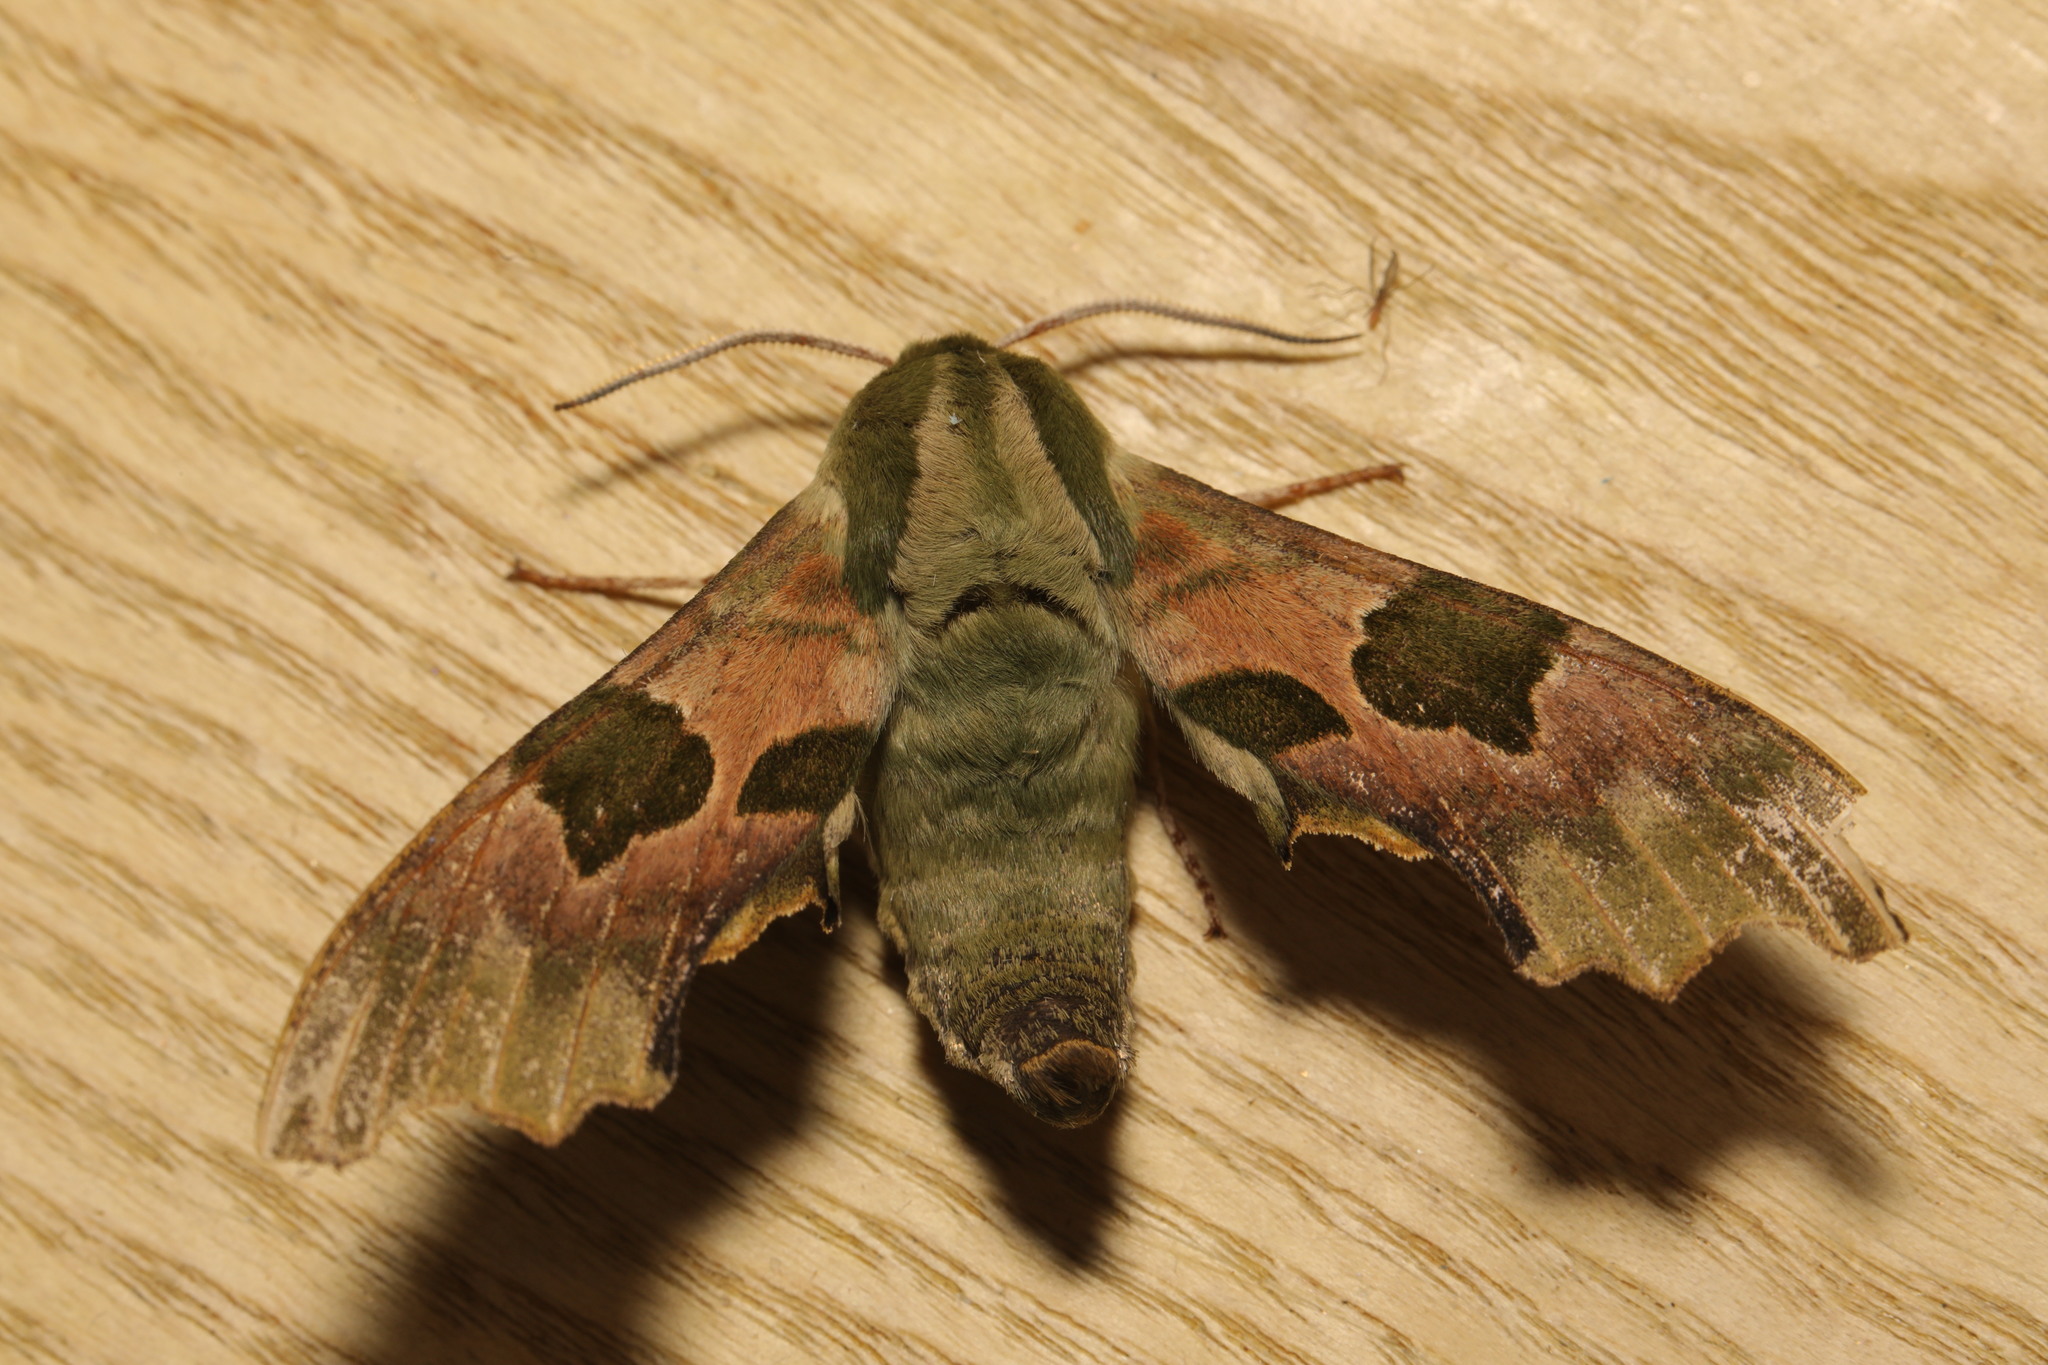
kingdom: Animalia
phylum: Arthropoda
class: Insecta
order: Lepidoptera
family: Sphingidae
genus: Mimas
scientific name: Mimas tiliae
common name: Lime hawk-moth
